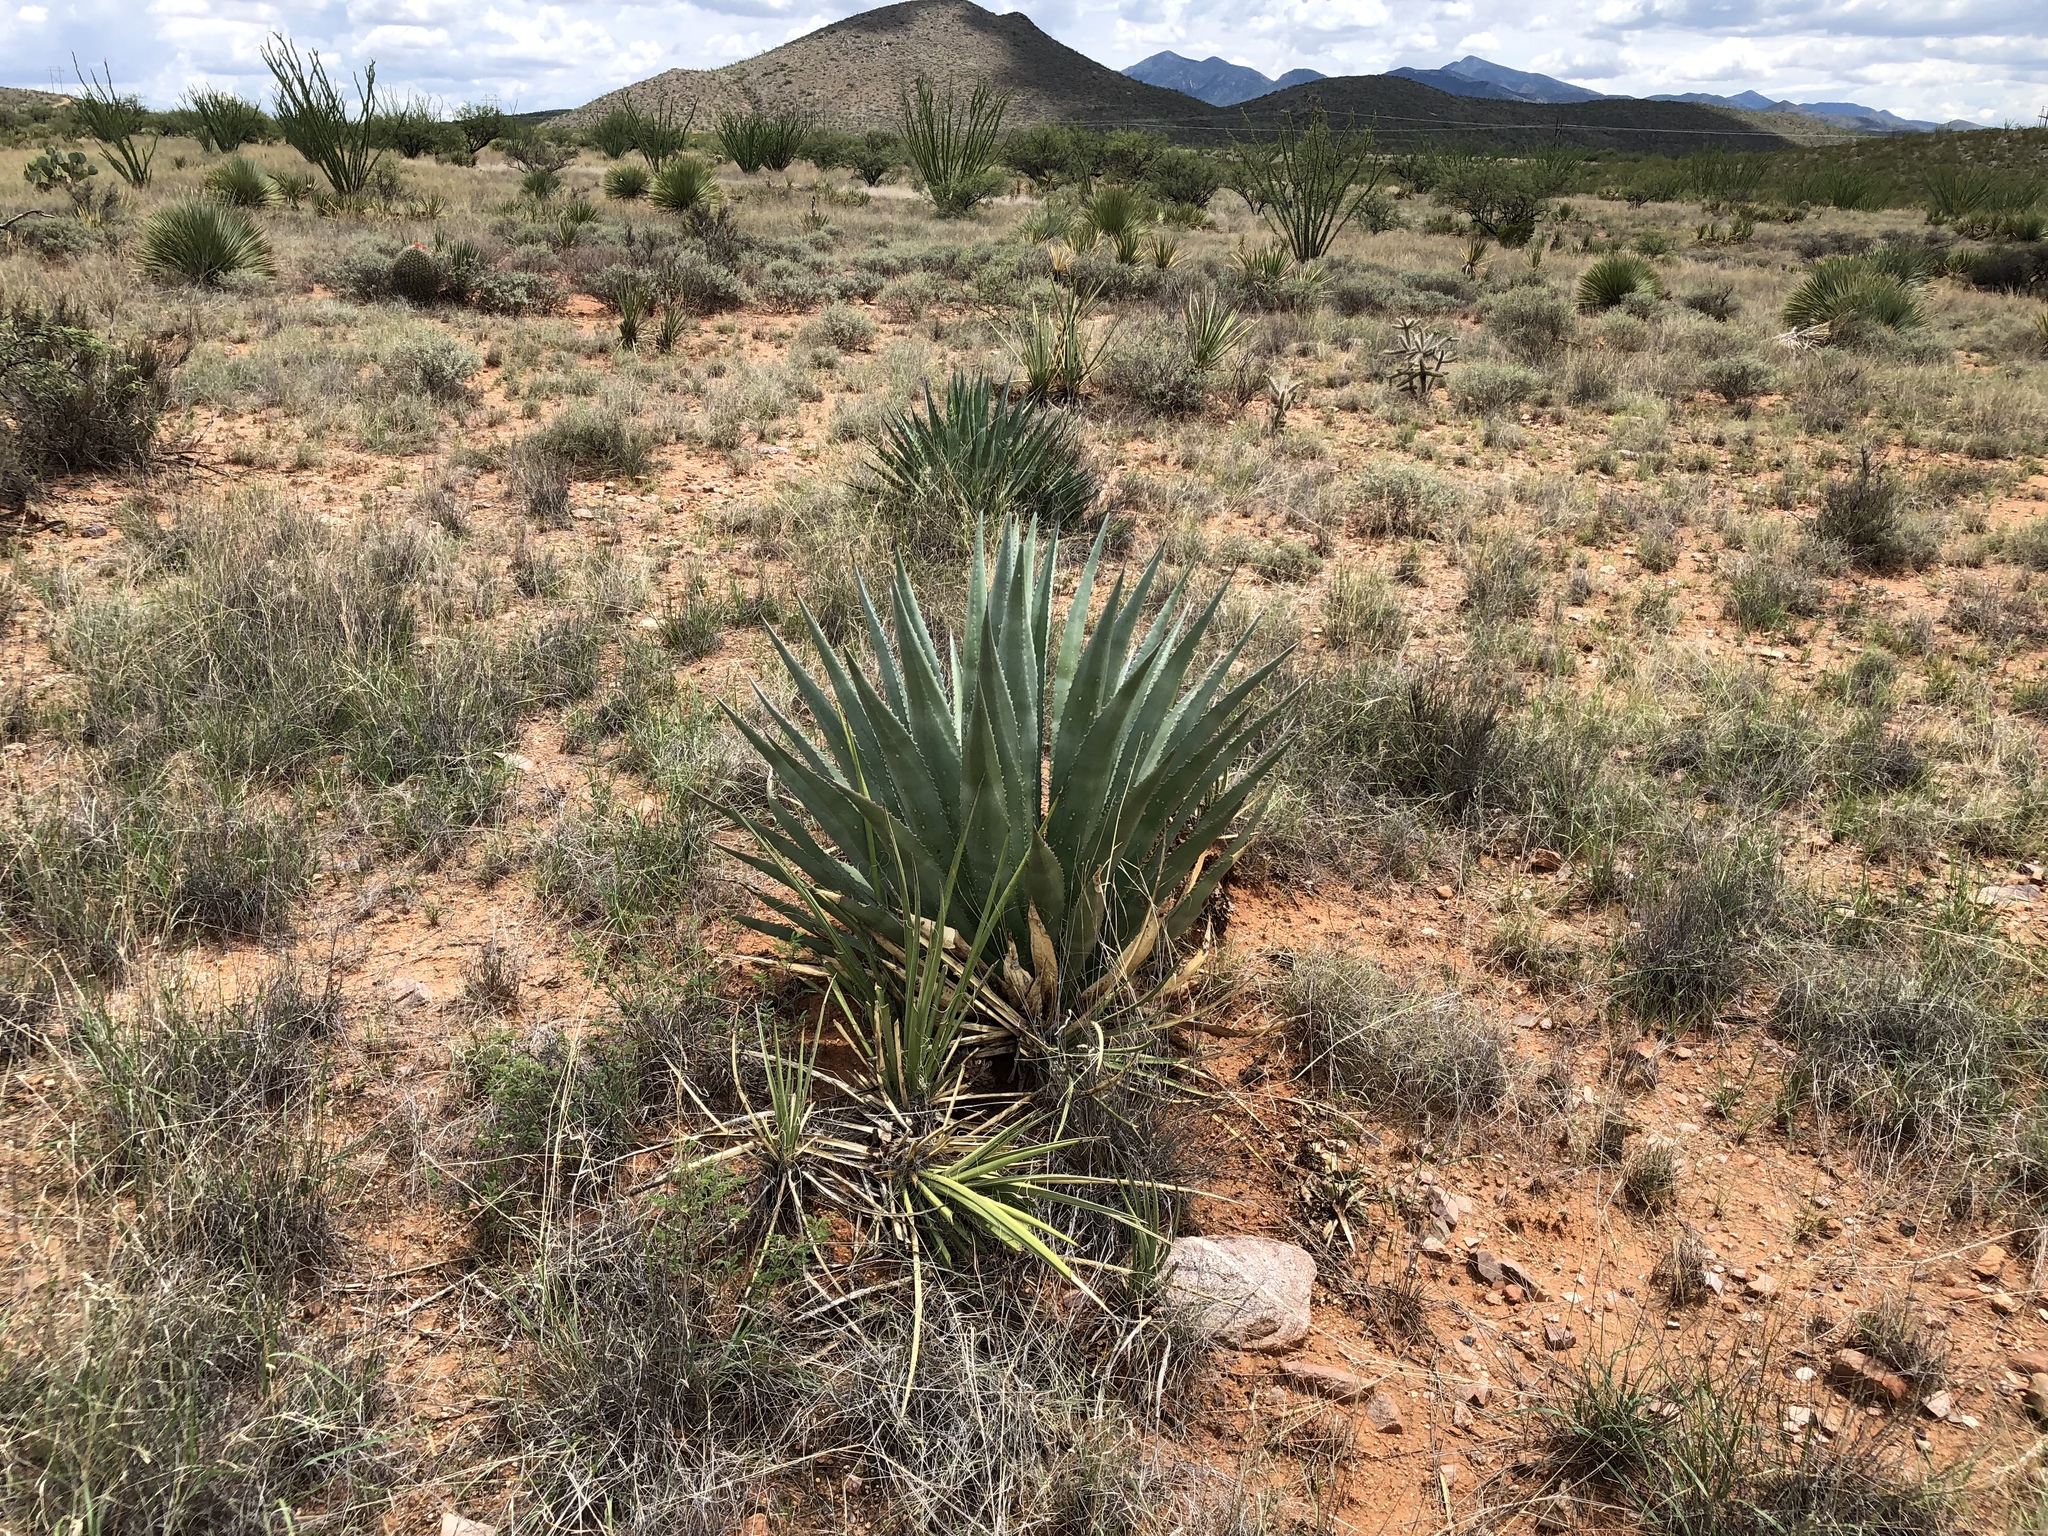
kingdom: Plantae
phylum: Tracheophyta
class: Liliopsida
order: Asparagales
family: Asparagaceae
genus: Agave
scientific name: Agave palmeri
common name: Palmer agave
